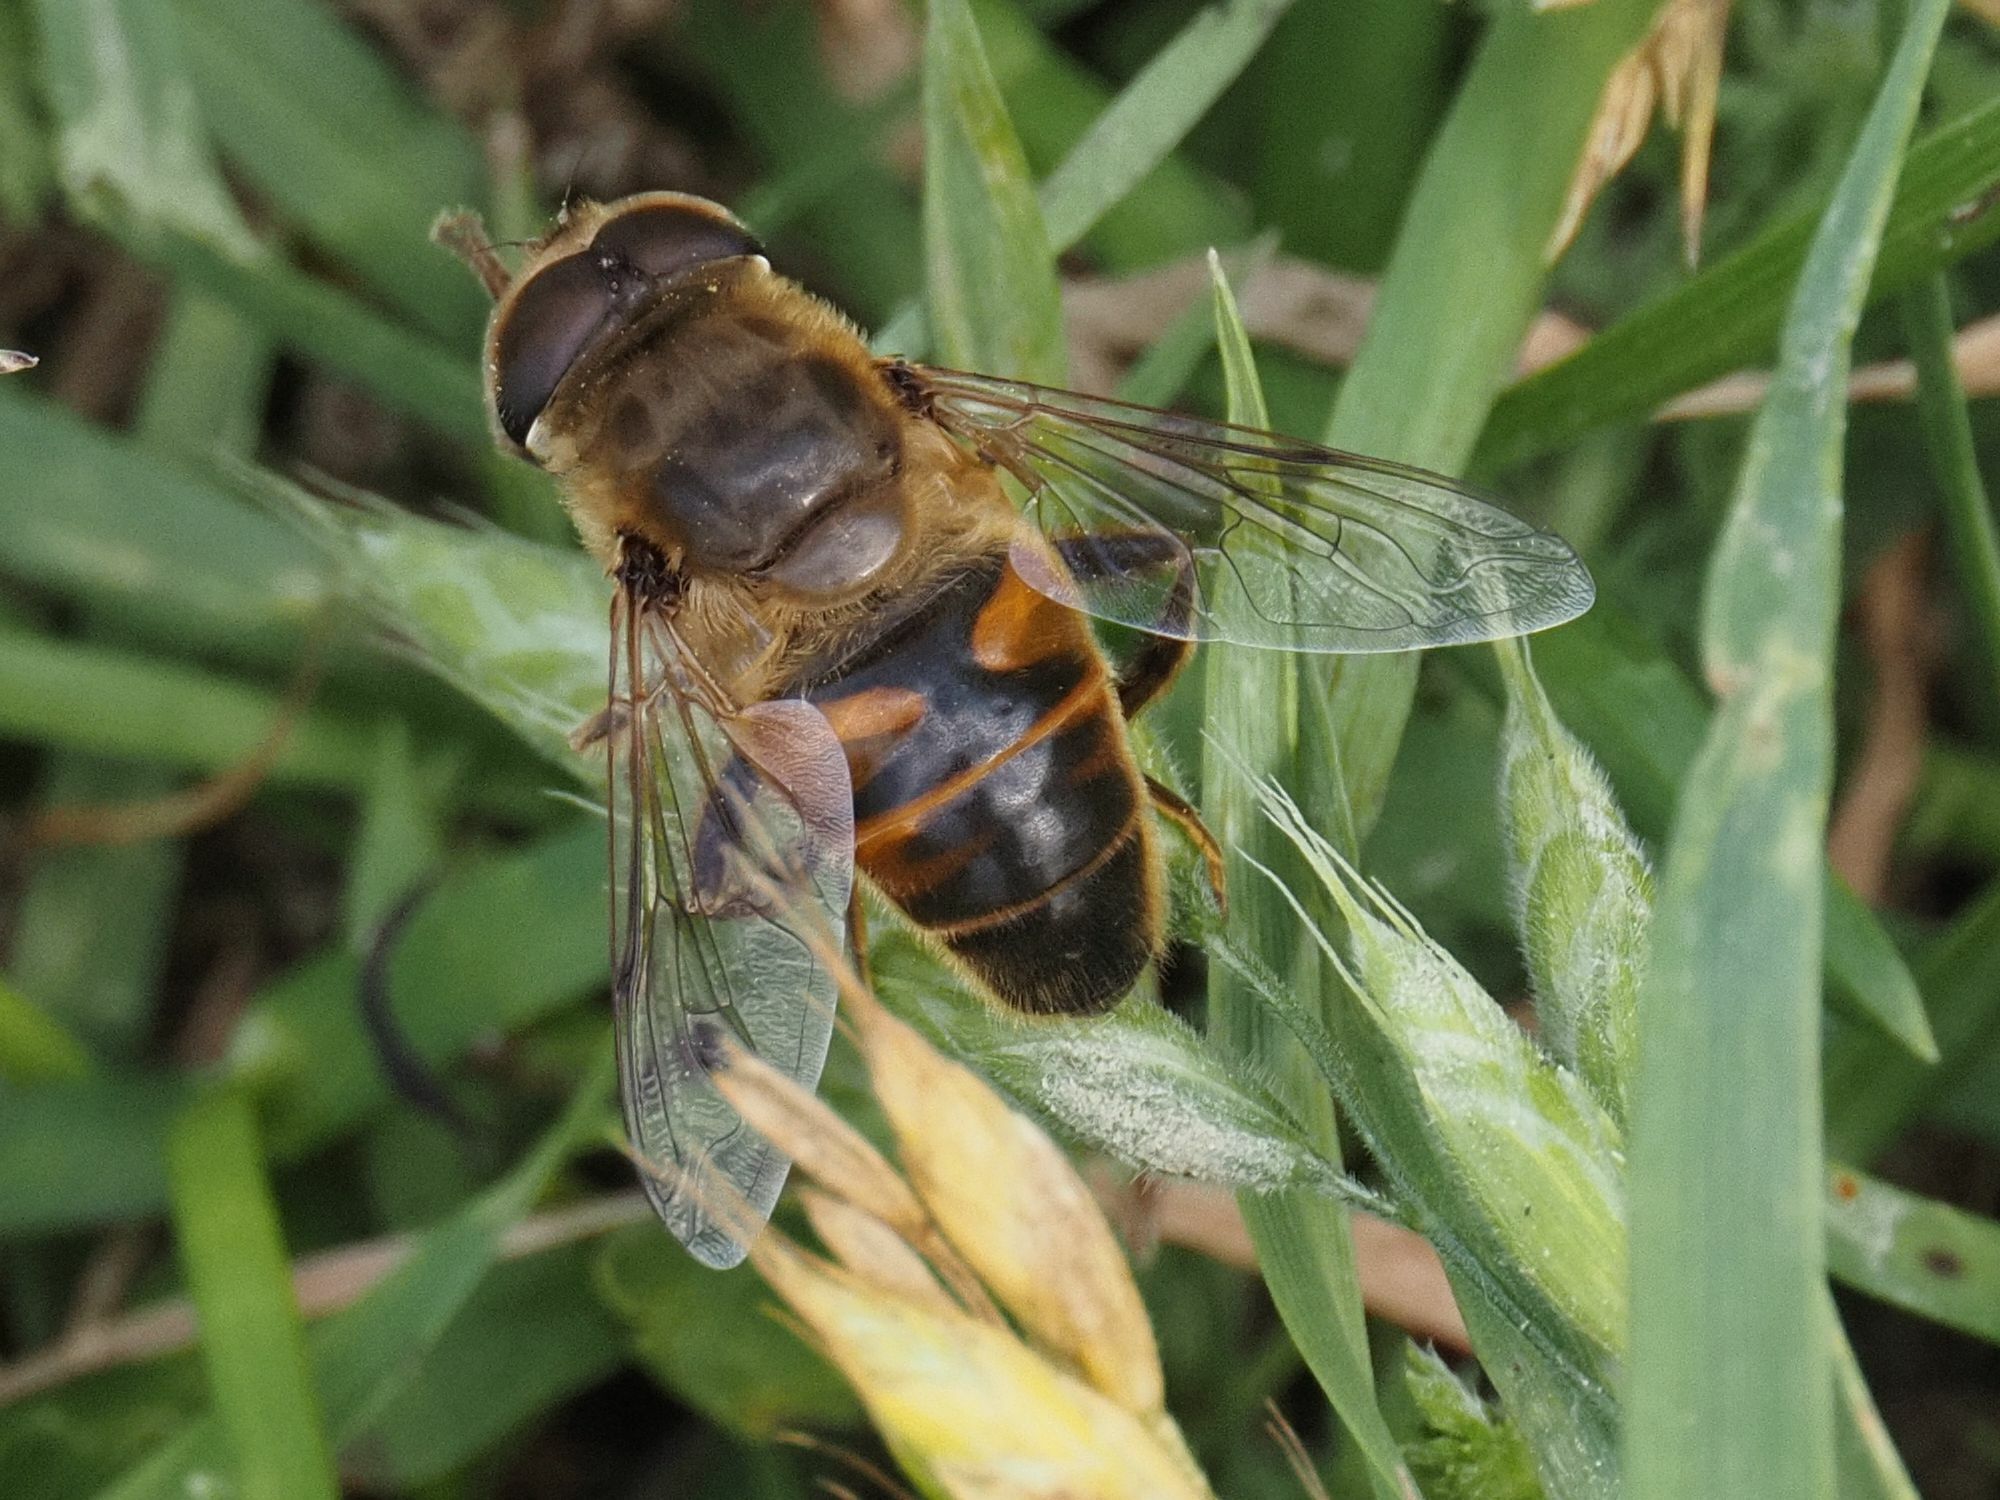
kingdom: Animalia
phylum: Arthropoda
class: Insecta
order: Diptera
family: Syrphidae
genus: Eristalis
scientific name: Eristalis tenax
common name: Drone fly
